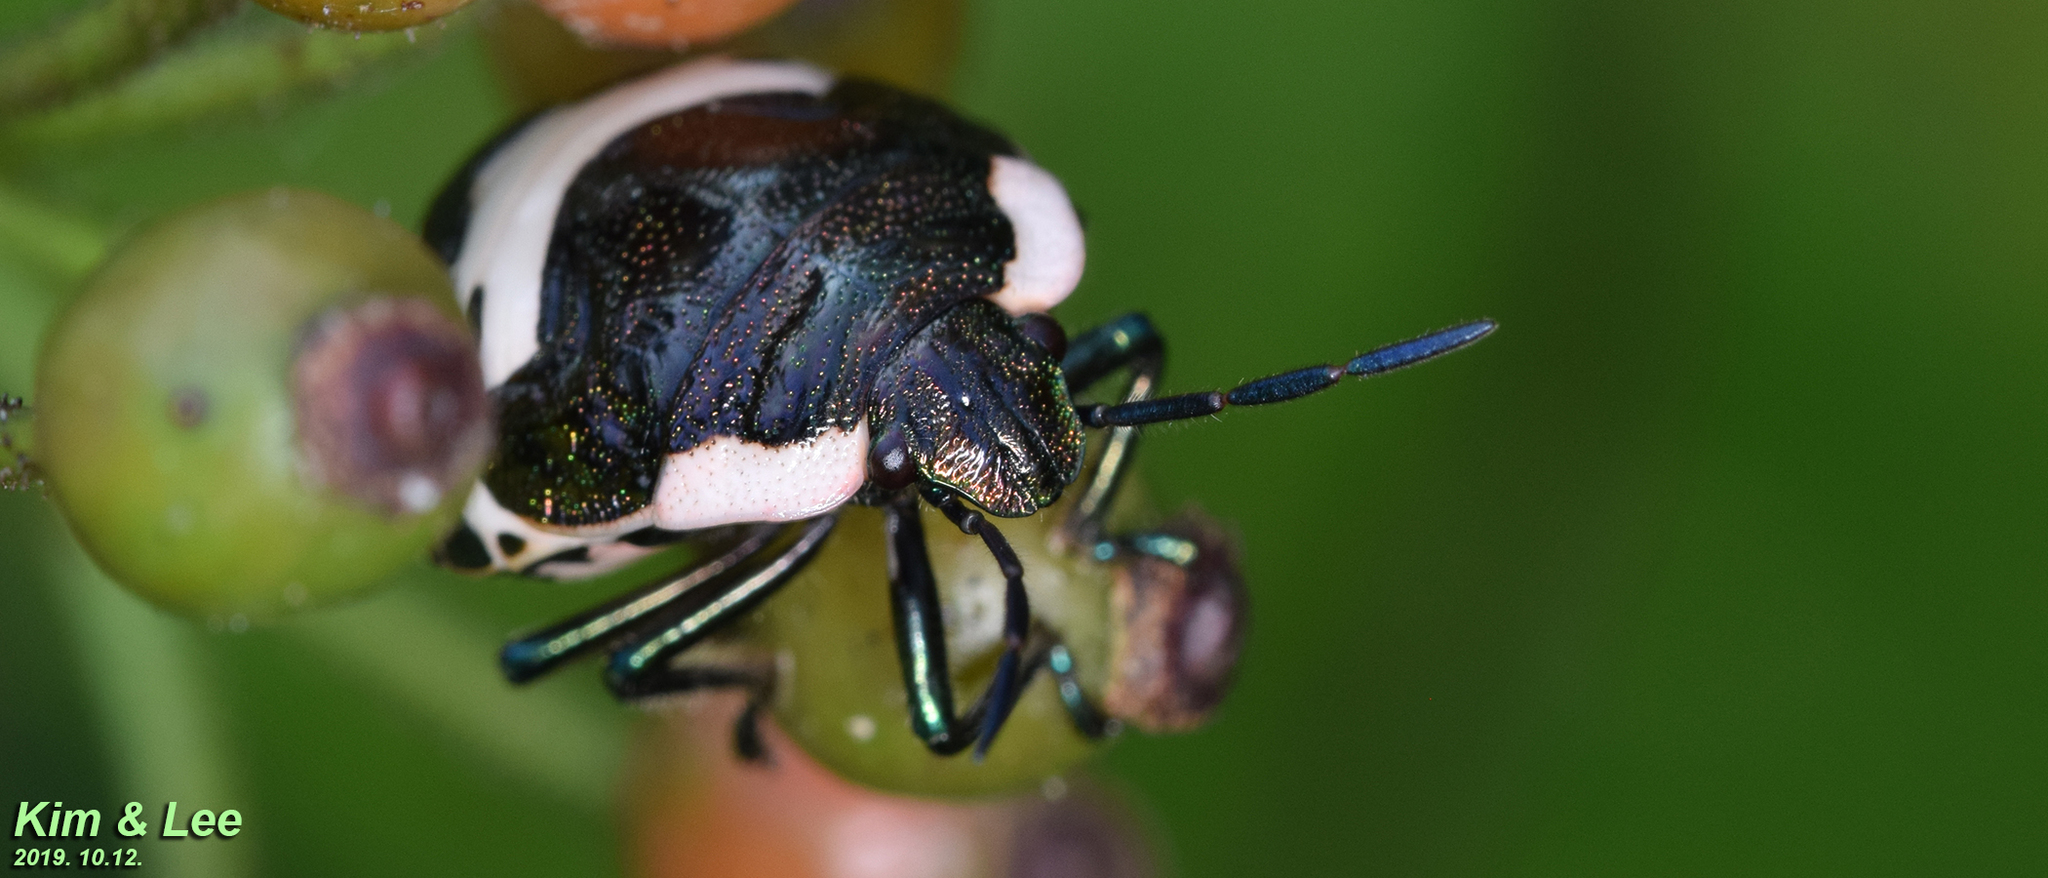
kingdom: Animalia
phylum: Arthropoda
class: Insecta
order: Hemiptera
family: Scutelleridae
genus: Poecilocoris
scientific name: Poecilocoris lewisi
